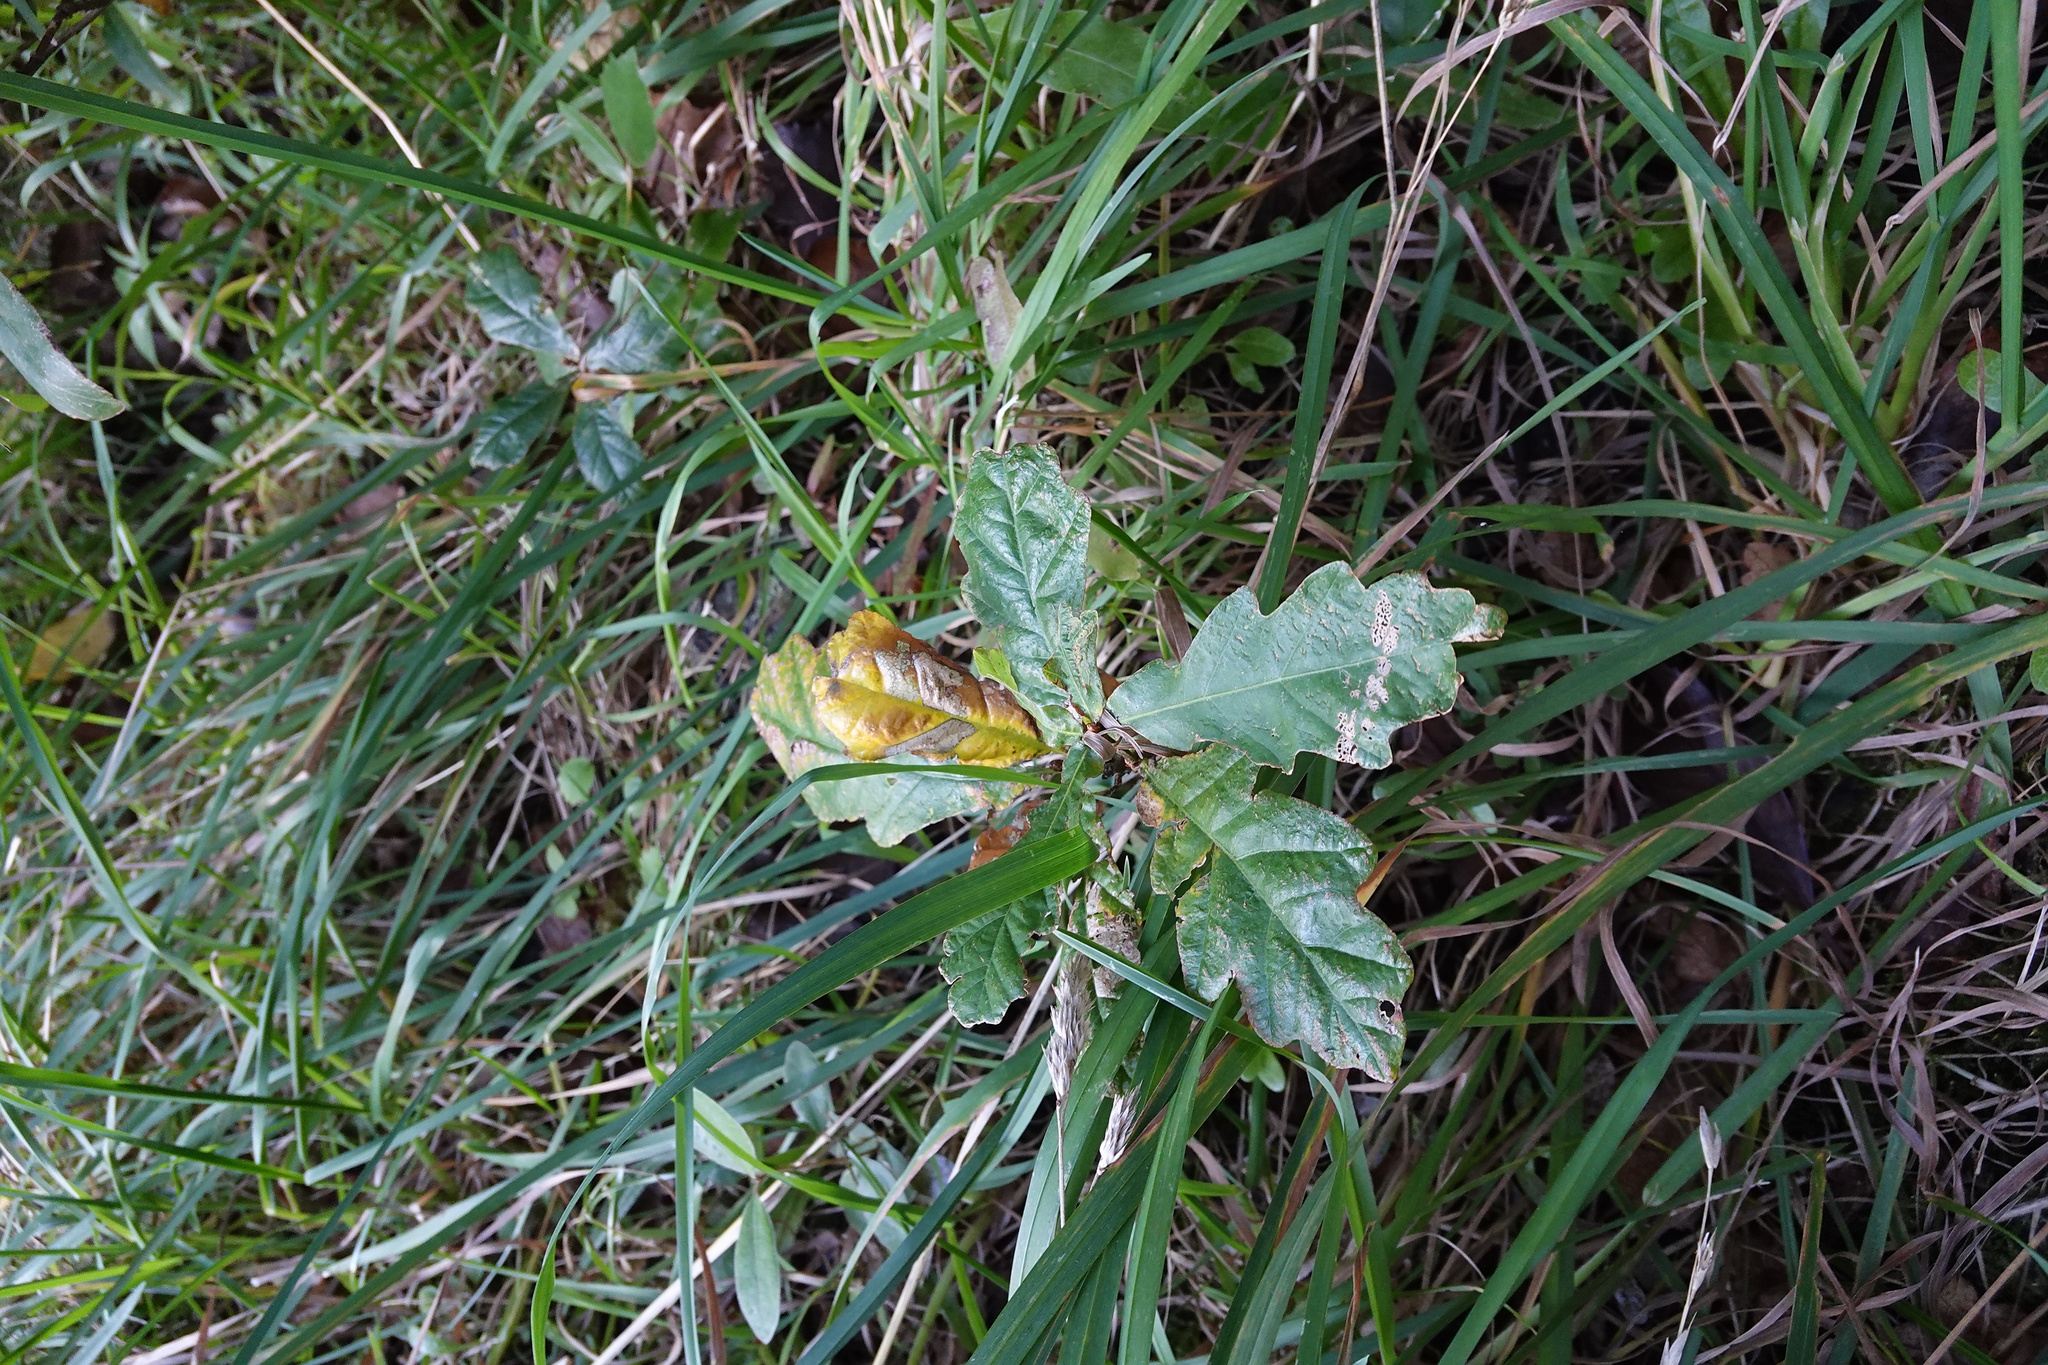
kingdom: Plantae
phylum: Tracheophyta
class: Magnoliopsida
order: Fagales
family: Fagaceae
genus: Quercus
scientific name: Quercus robur
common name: Pedunculate oak
